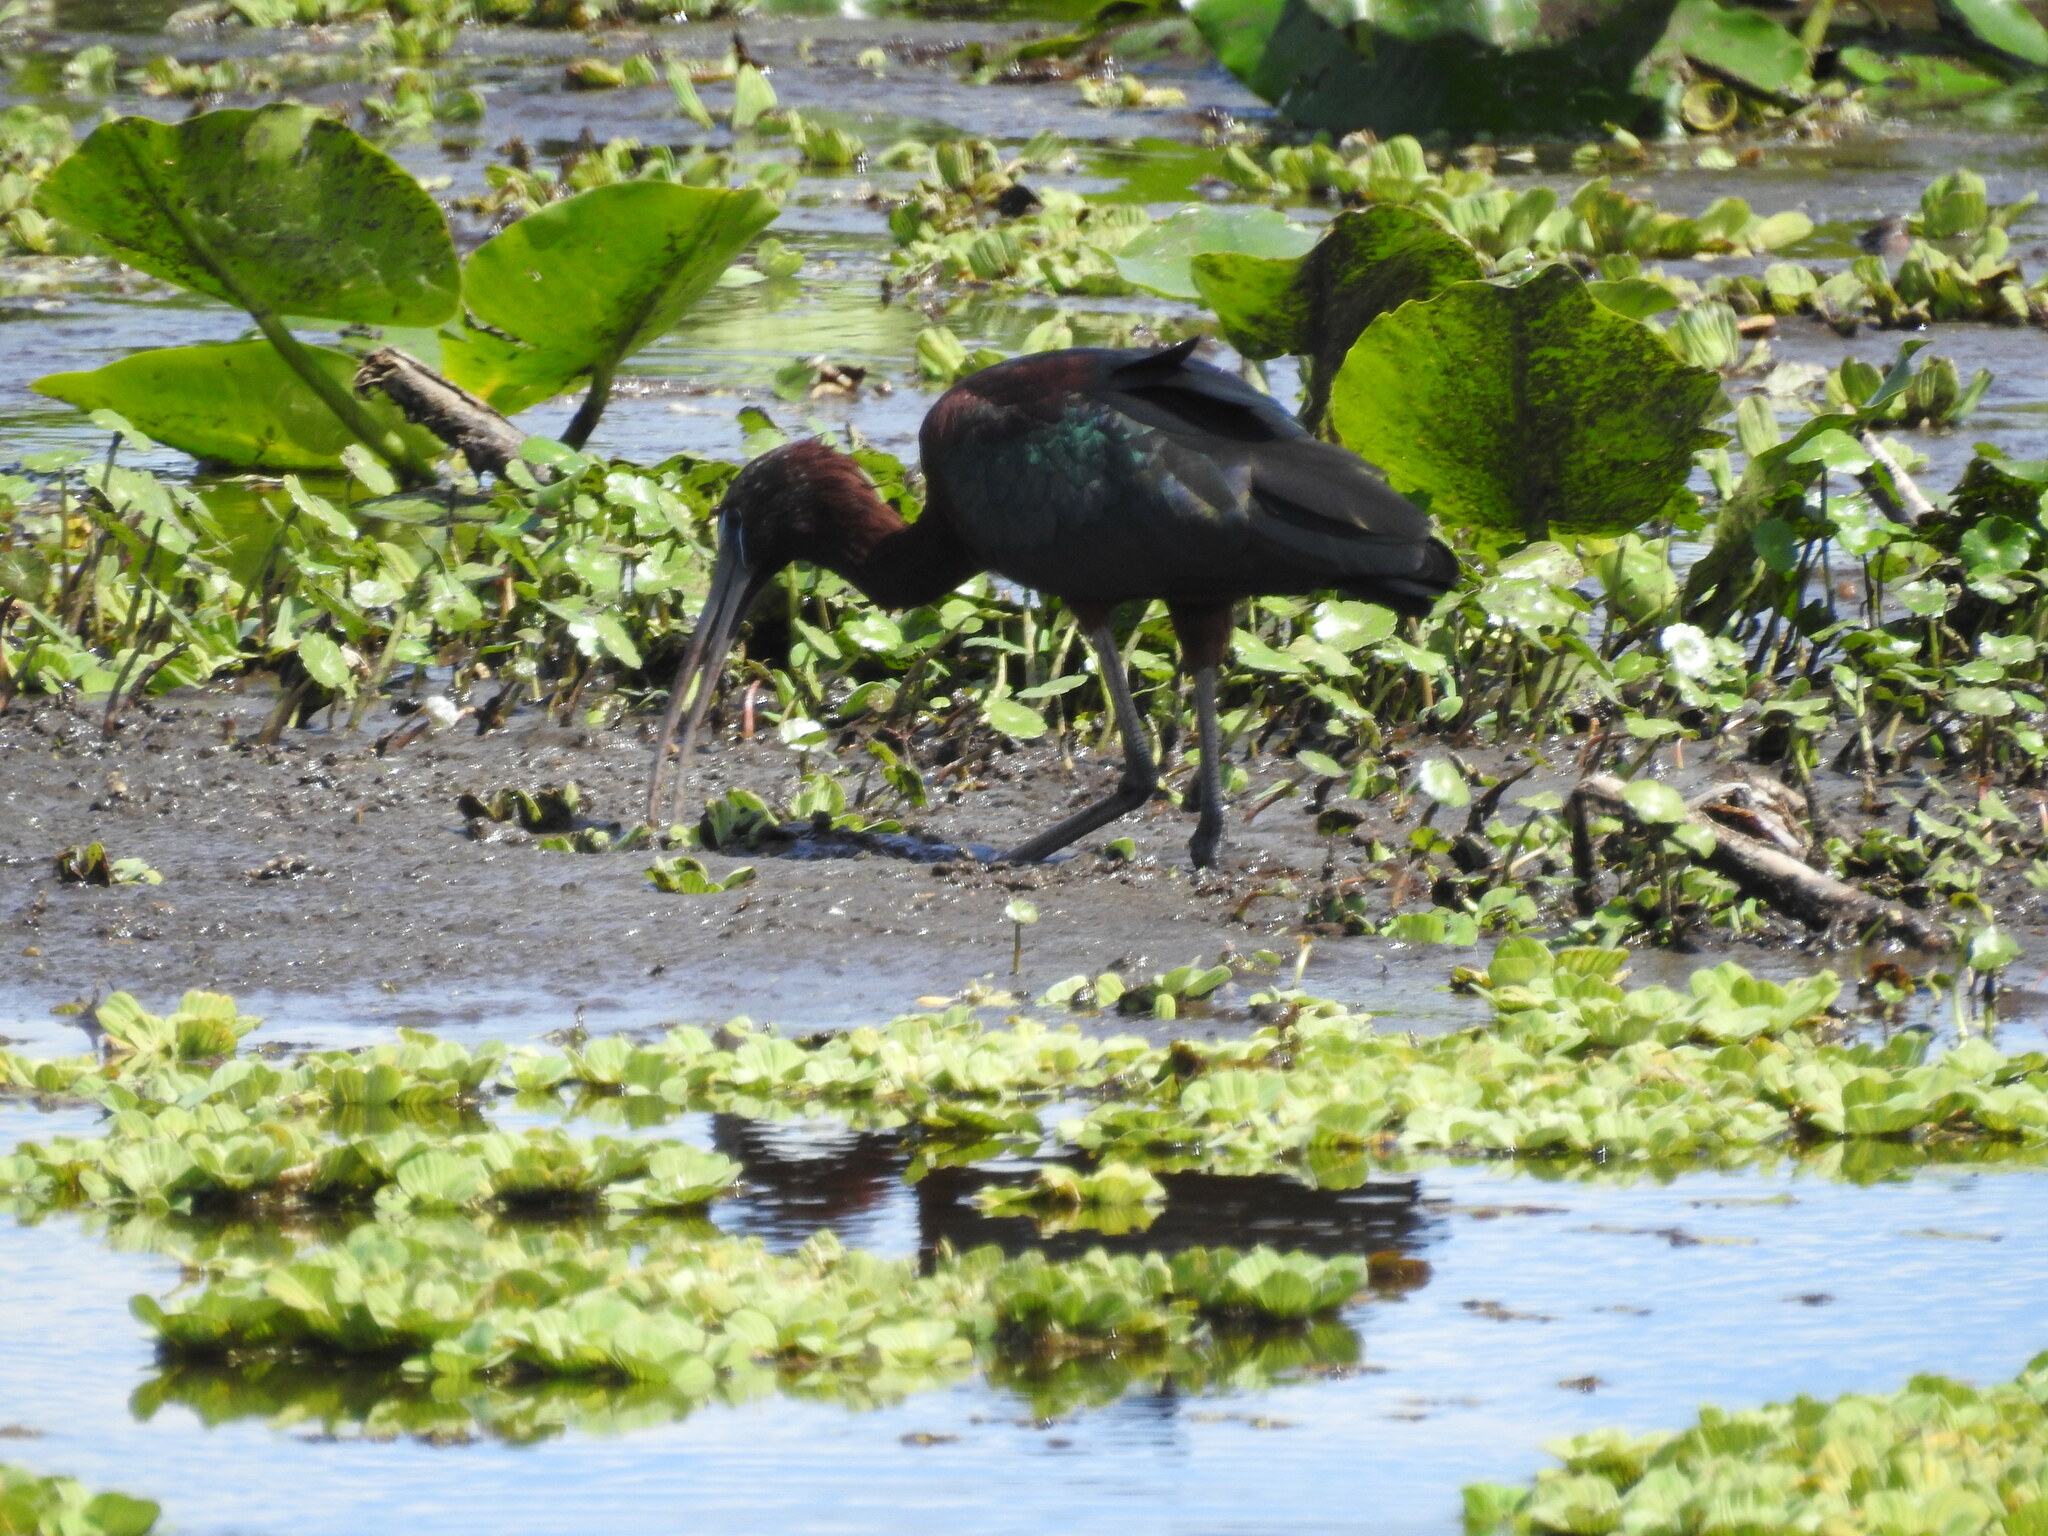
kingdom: Animalia
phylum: Chordata
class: Aves
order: Pelecaniformes
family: Threskiornithidae
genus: Plegadis
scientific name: Plegadis falcinellus
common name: Glossy ibis
